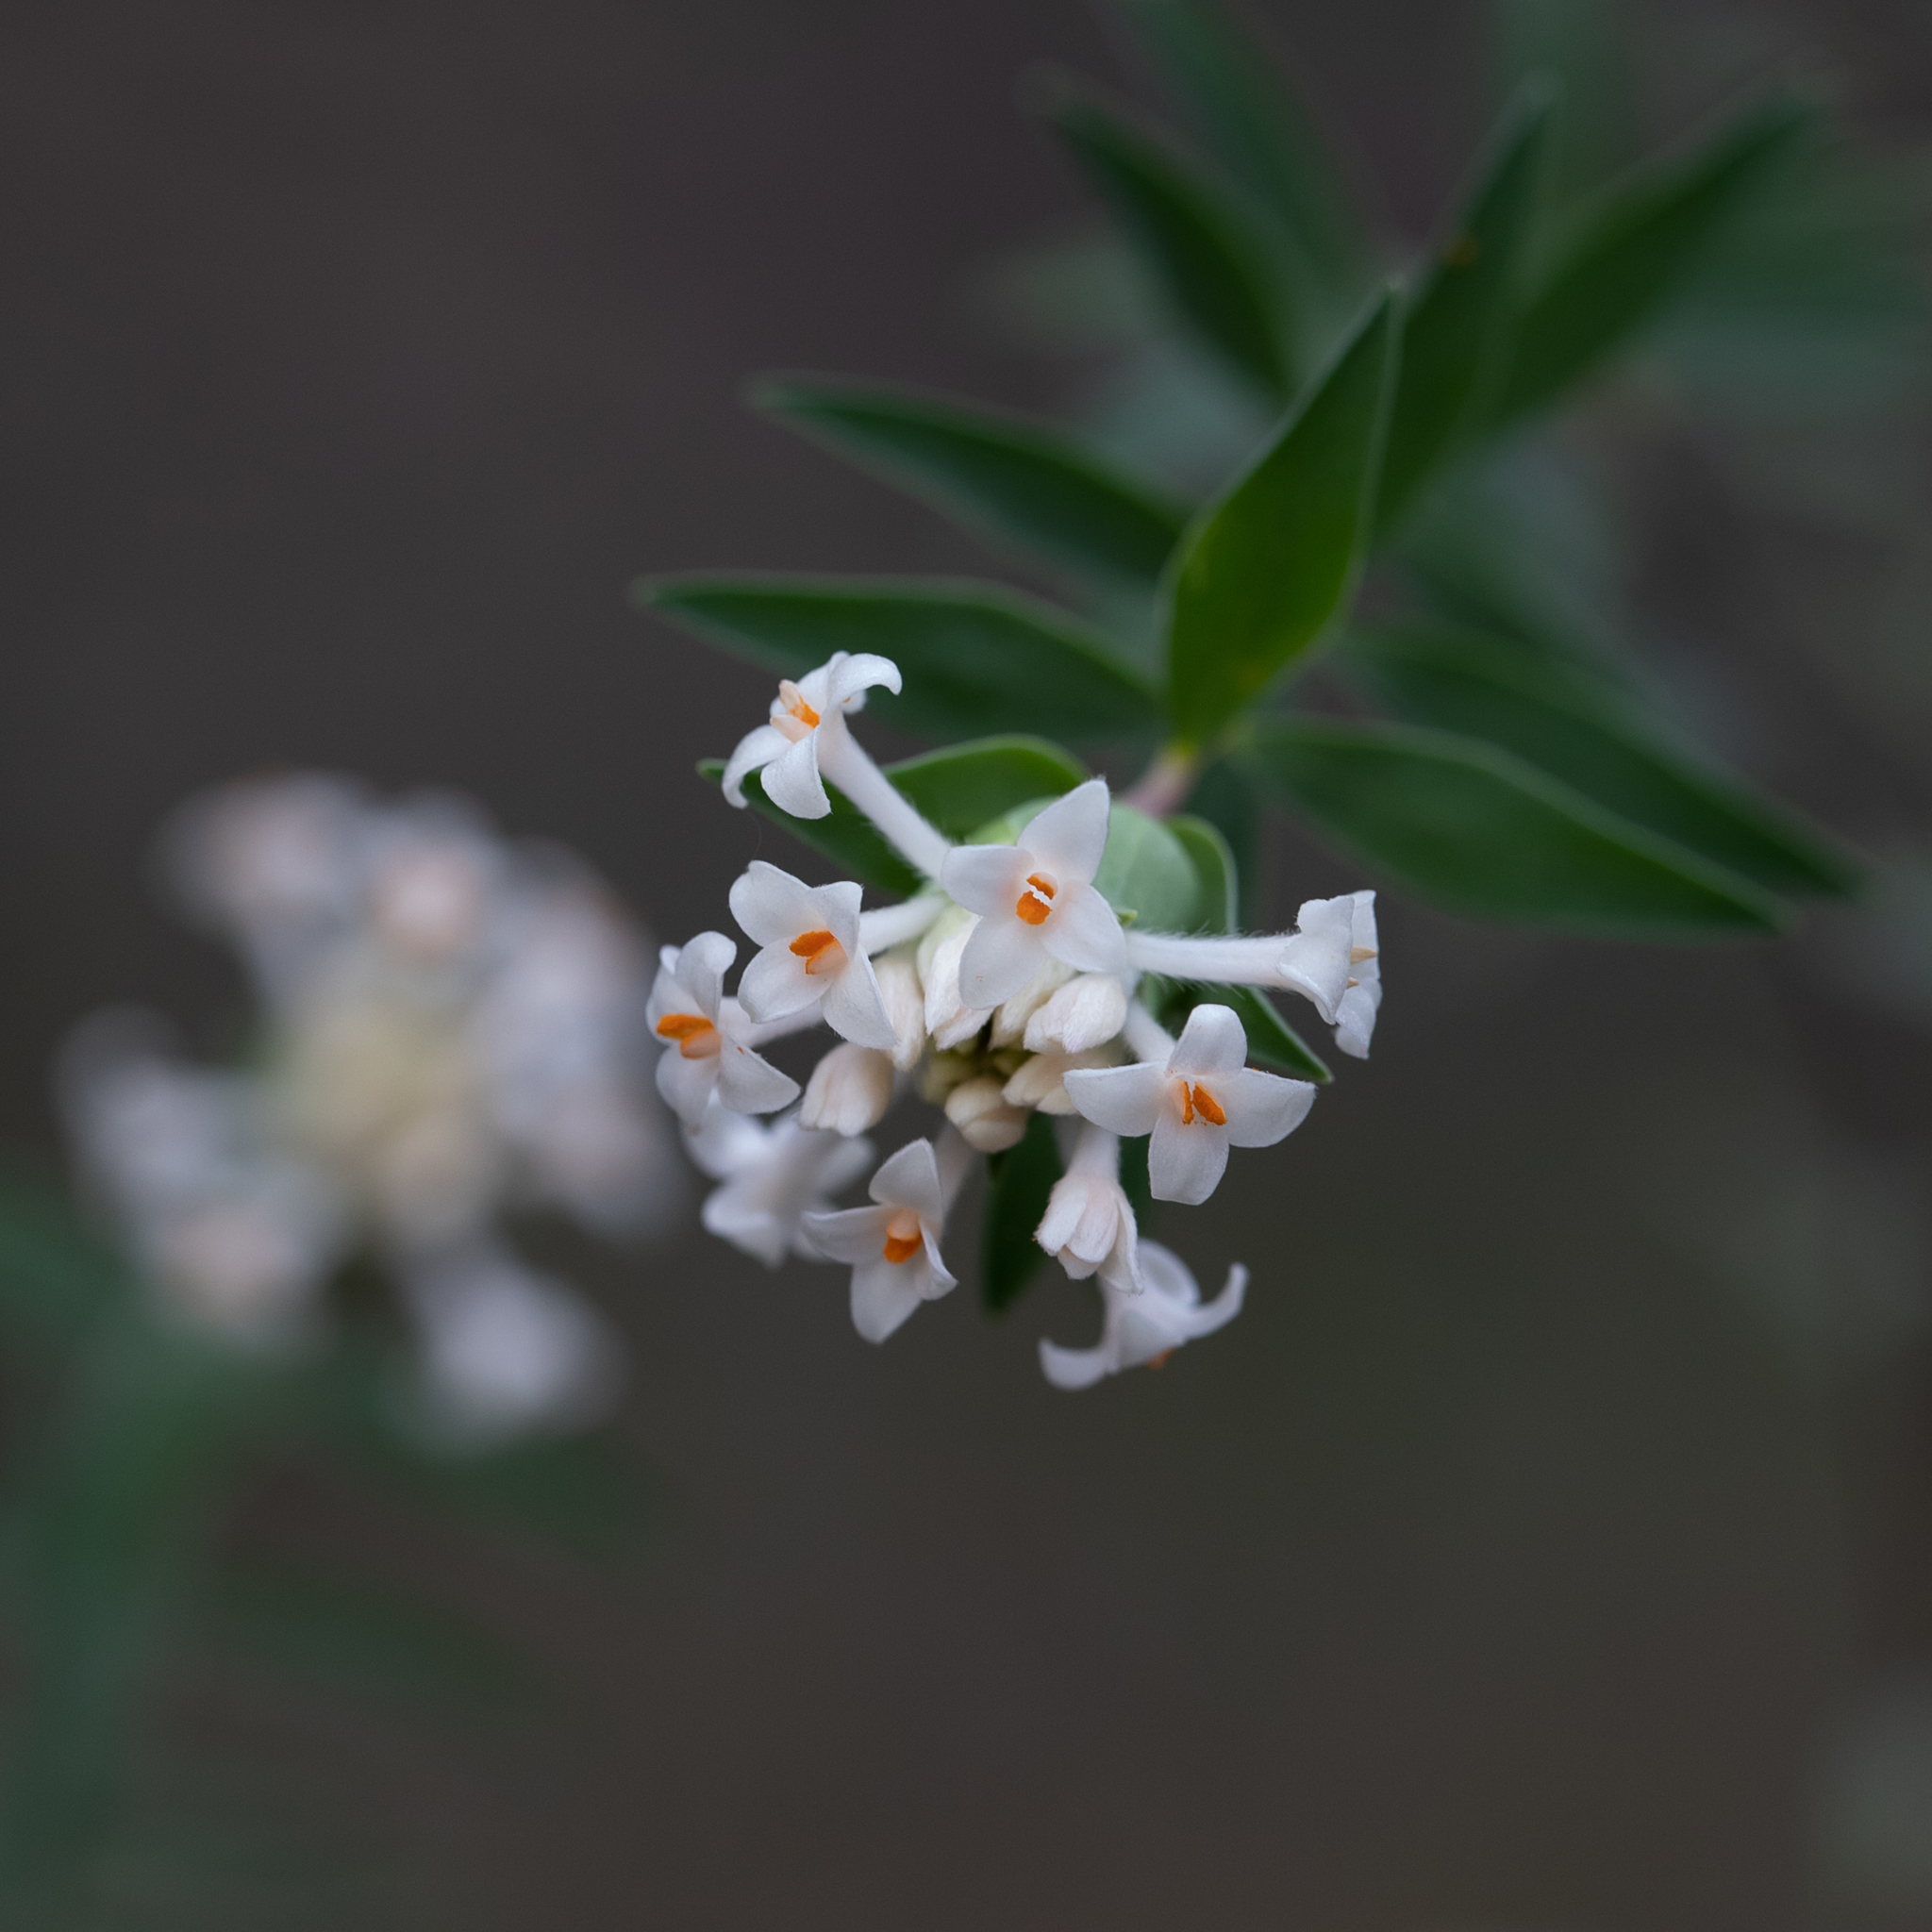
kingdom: Plantae
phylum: Tracheophyta
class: Magnoliopsida
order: Malvales
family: Thymelaeaceae
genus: Pimelea
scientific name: Pimelea stricta
